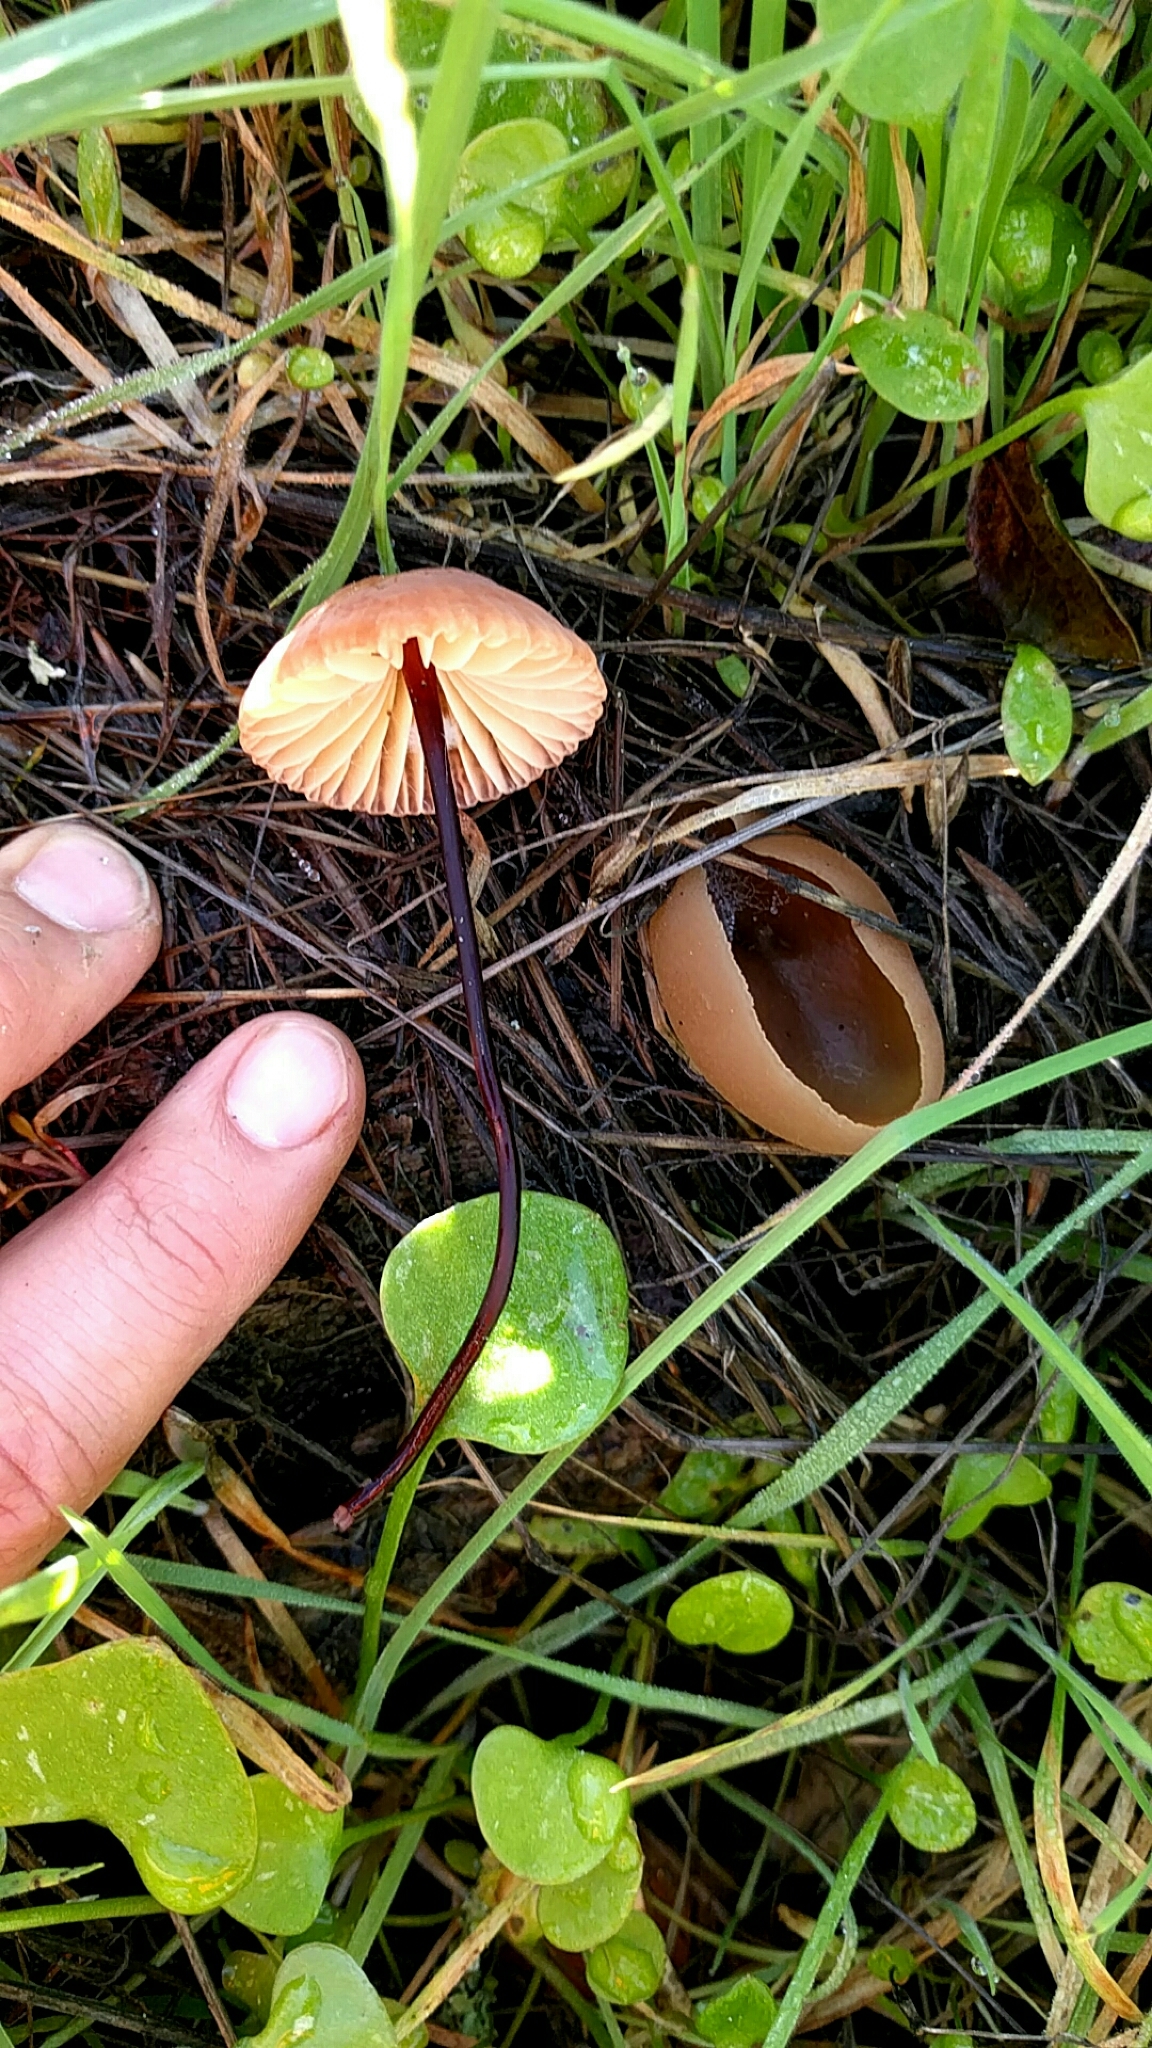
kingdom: Fungi
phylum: Basidiomycota
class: Agaricomycetes
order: Agaricales
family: Marasmiaceae
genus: Marasmius
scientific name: Marasmius plicatulus
